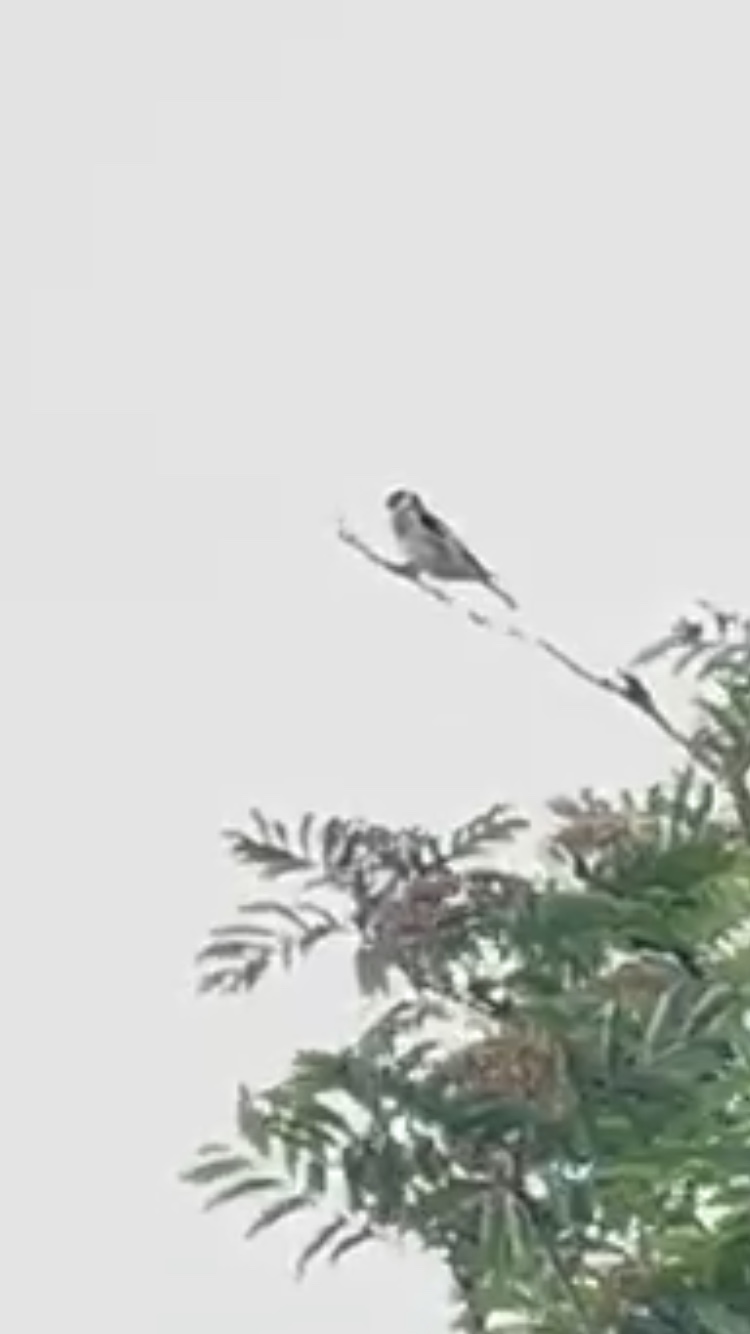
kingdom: Animalia
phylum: Chordata
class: Aves
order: Passeriformes
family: Fringillidae
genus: Carduelis
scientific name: Carduelis carduelis
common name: European goldfinch
